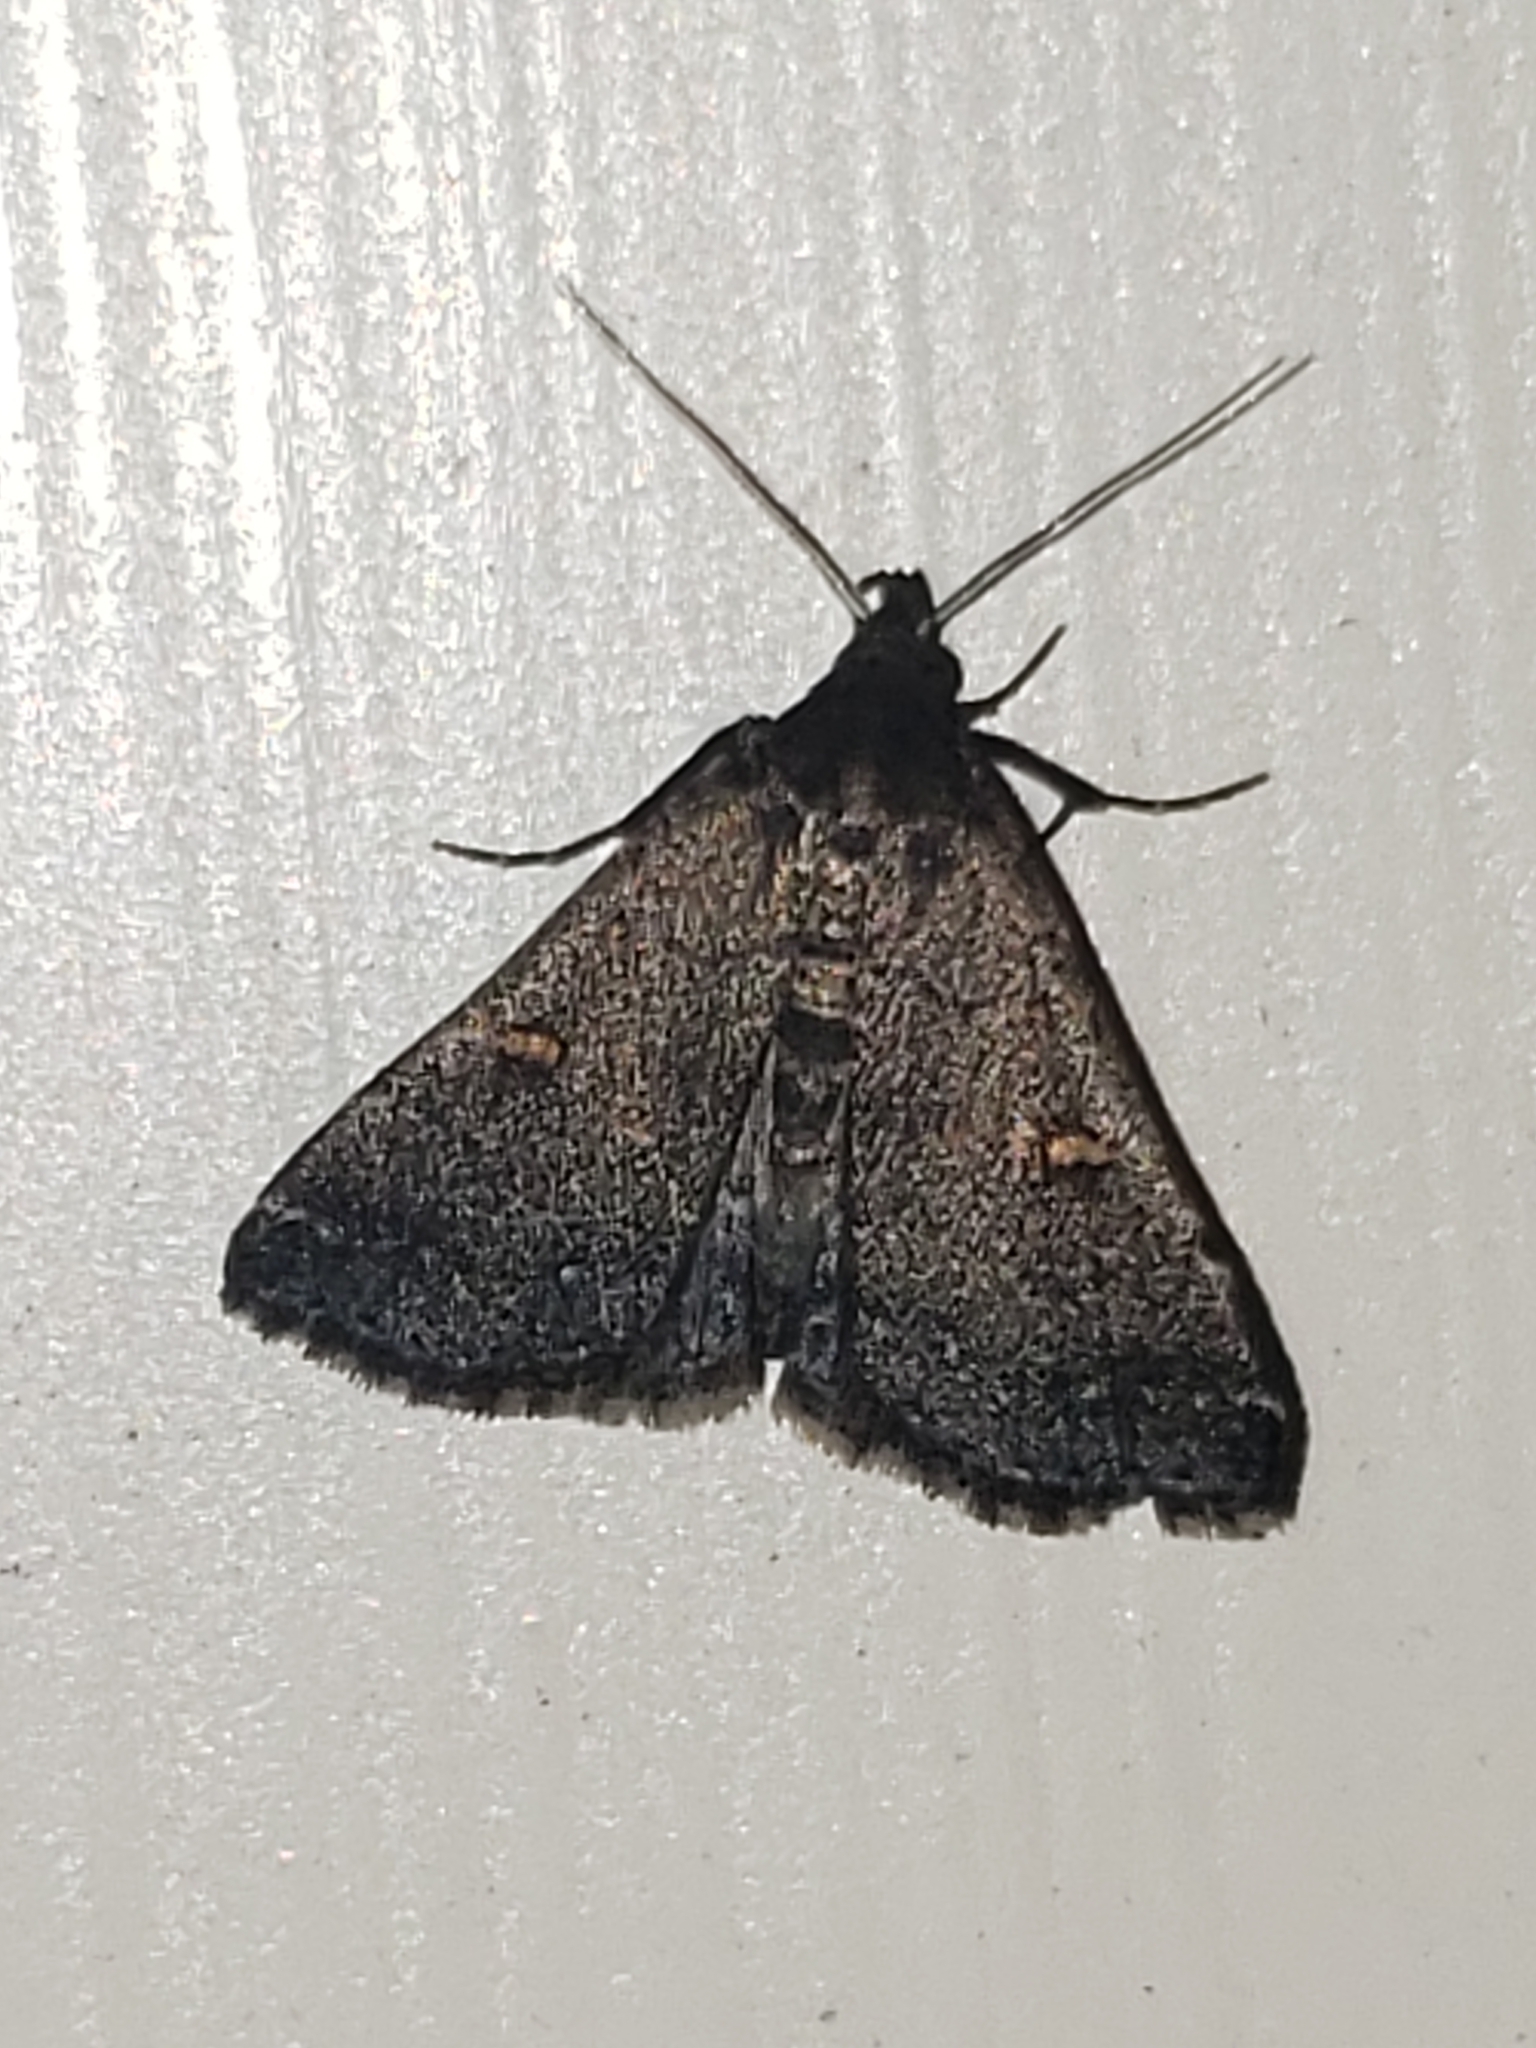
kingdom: Animalia
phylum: Arthropoda
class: Insecta
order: Lepidoptera
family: Erebidae
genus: Tetanolita
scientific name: Tetanolita mynesalis
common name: Smoky tetanolita moth
